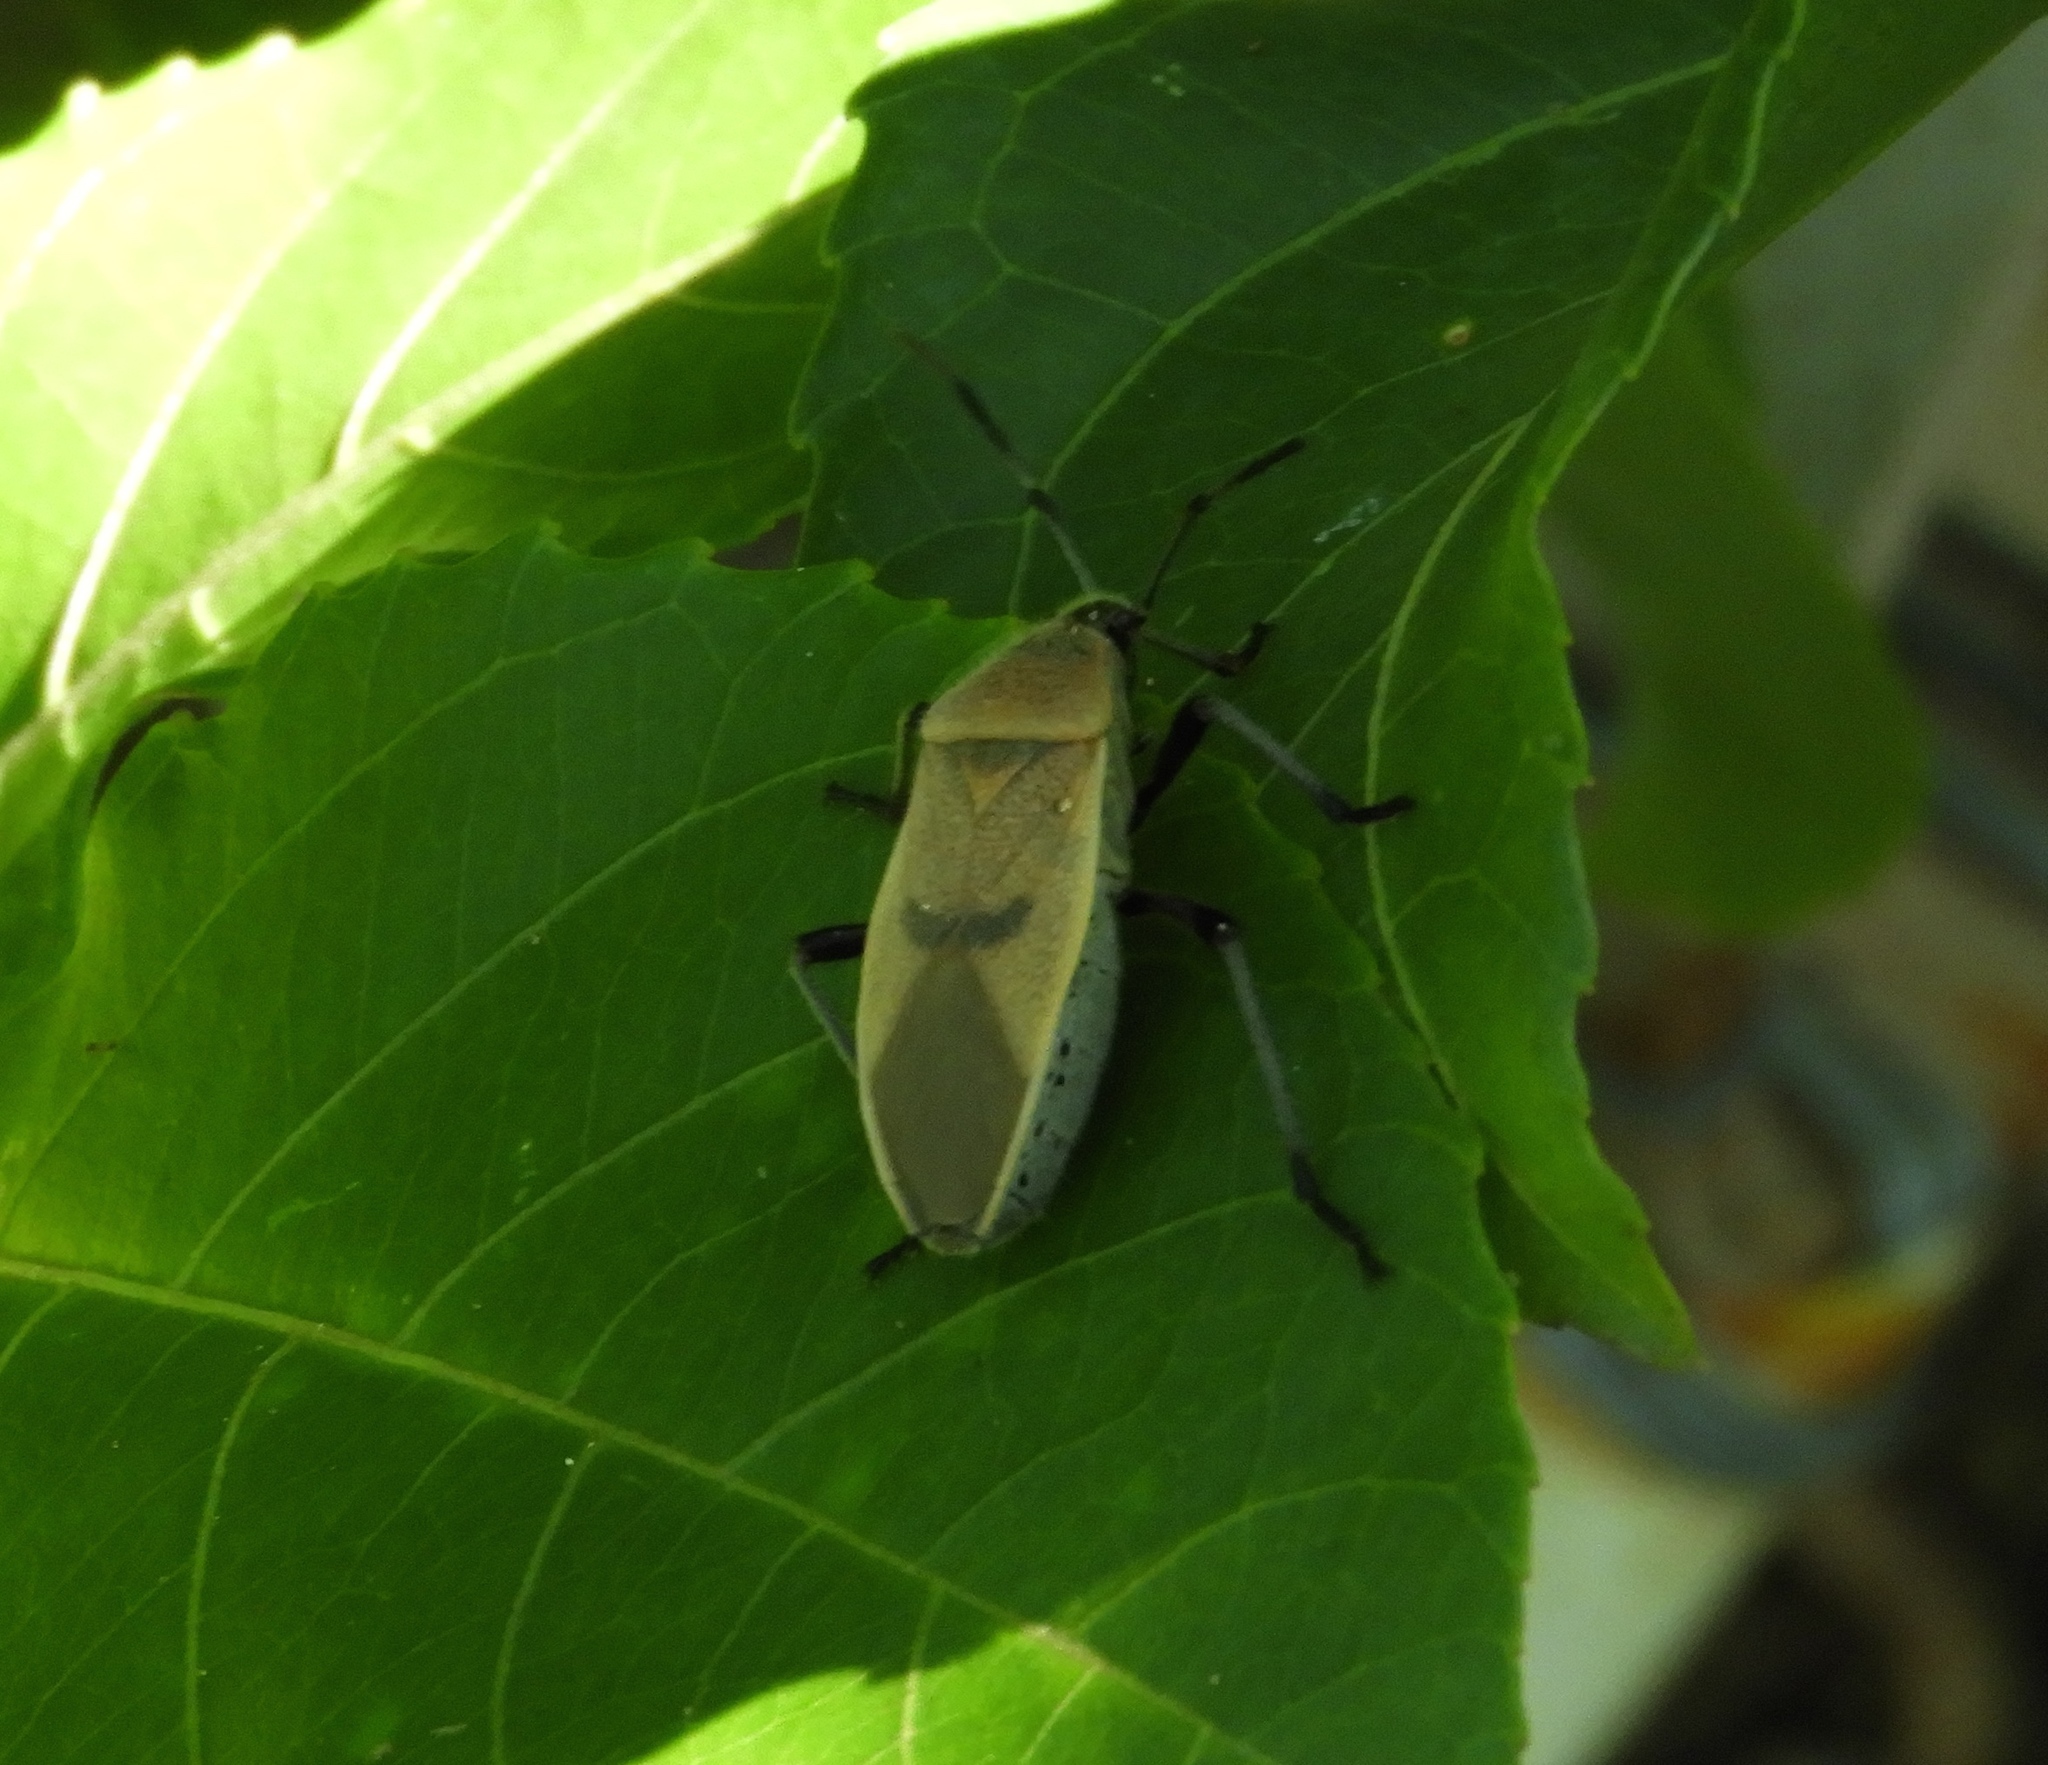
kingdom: Animalia
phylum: Arthropoda
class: Insecta
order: Hemiptera
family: Largidae
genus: Largus
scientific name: Largus
